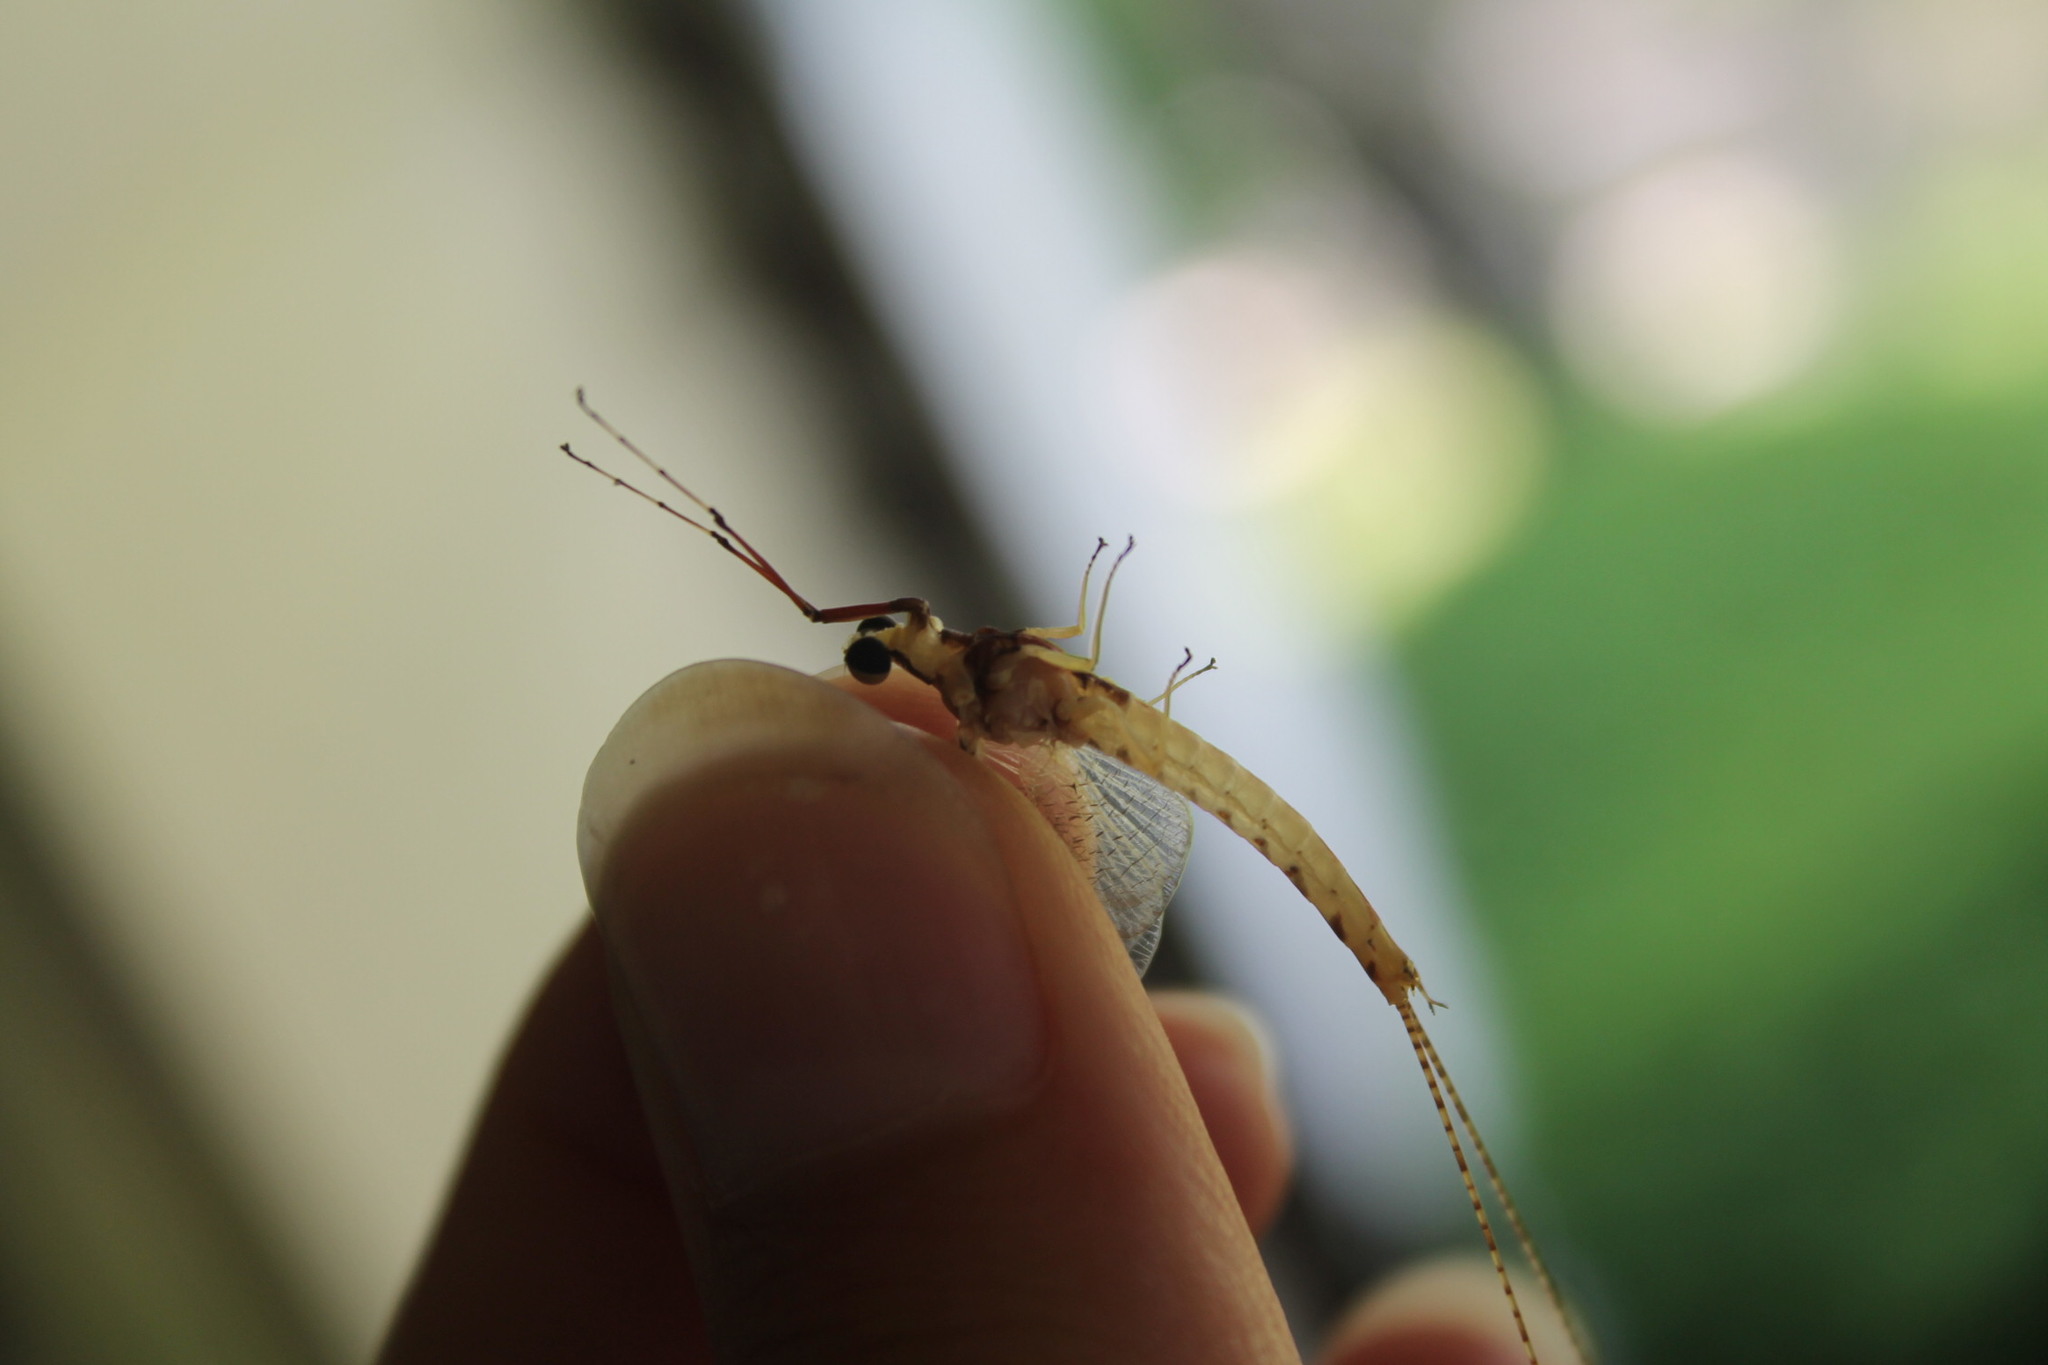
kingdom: Animalia
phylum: Arthropoda
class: Insecta
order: Ephemeroptera
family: Ephemeridae
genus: Hexagenia
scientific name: Hexagenia limbata
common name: Giant mayfly
